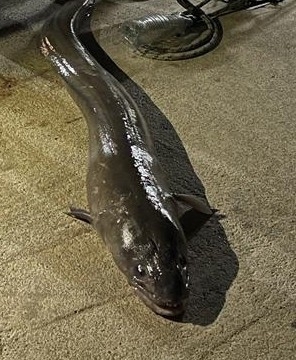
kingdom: Animalia
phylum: Chordata
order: Anguilliformes
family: Congridae
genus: Conger
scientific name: Conger conger
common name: Conger eel
